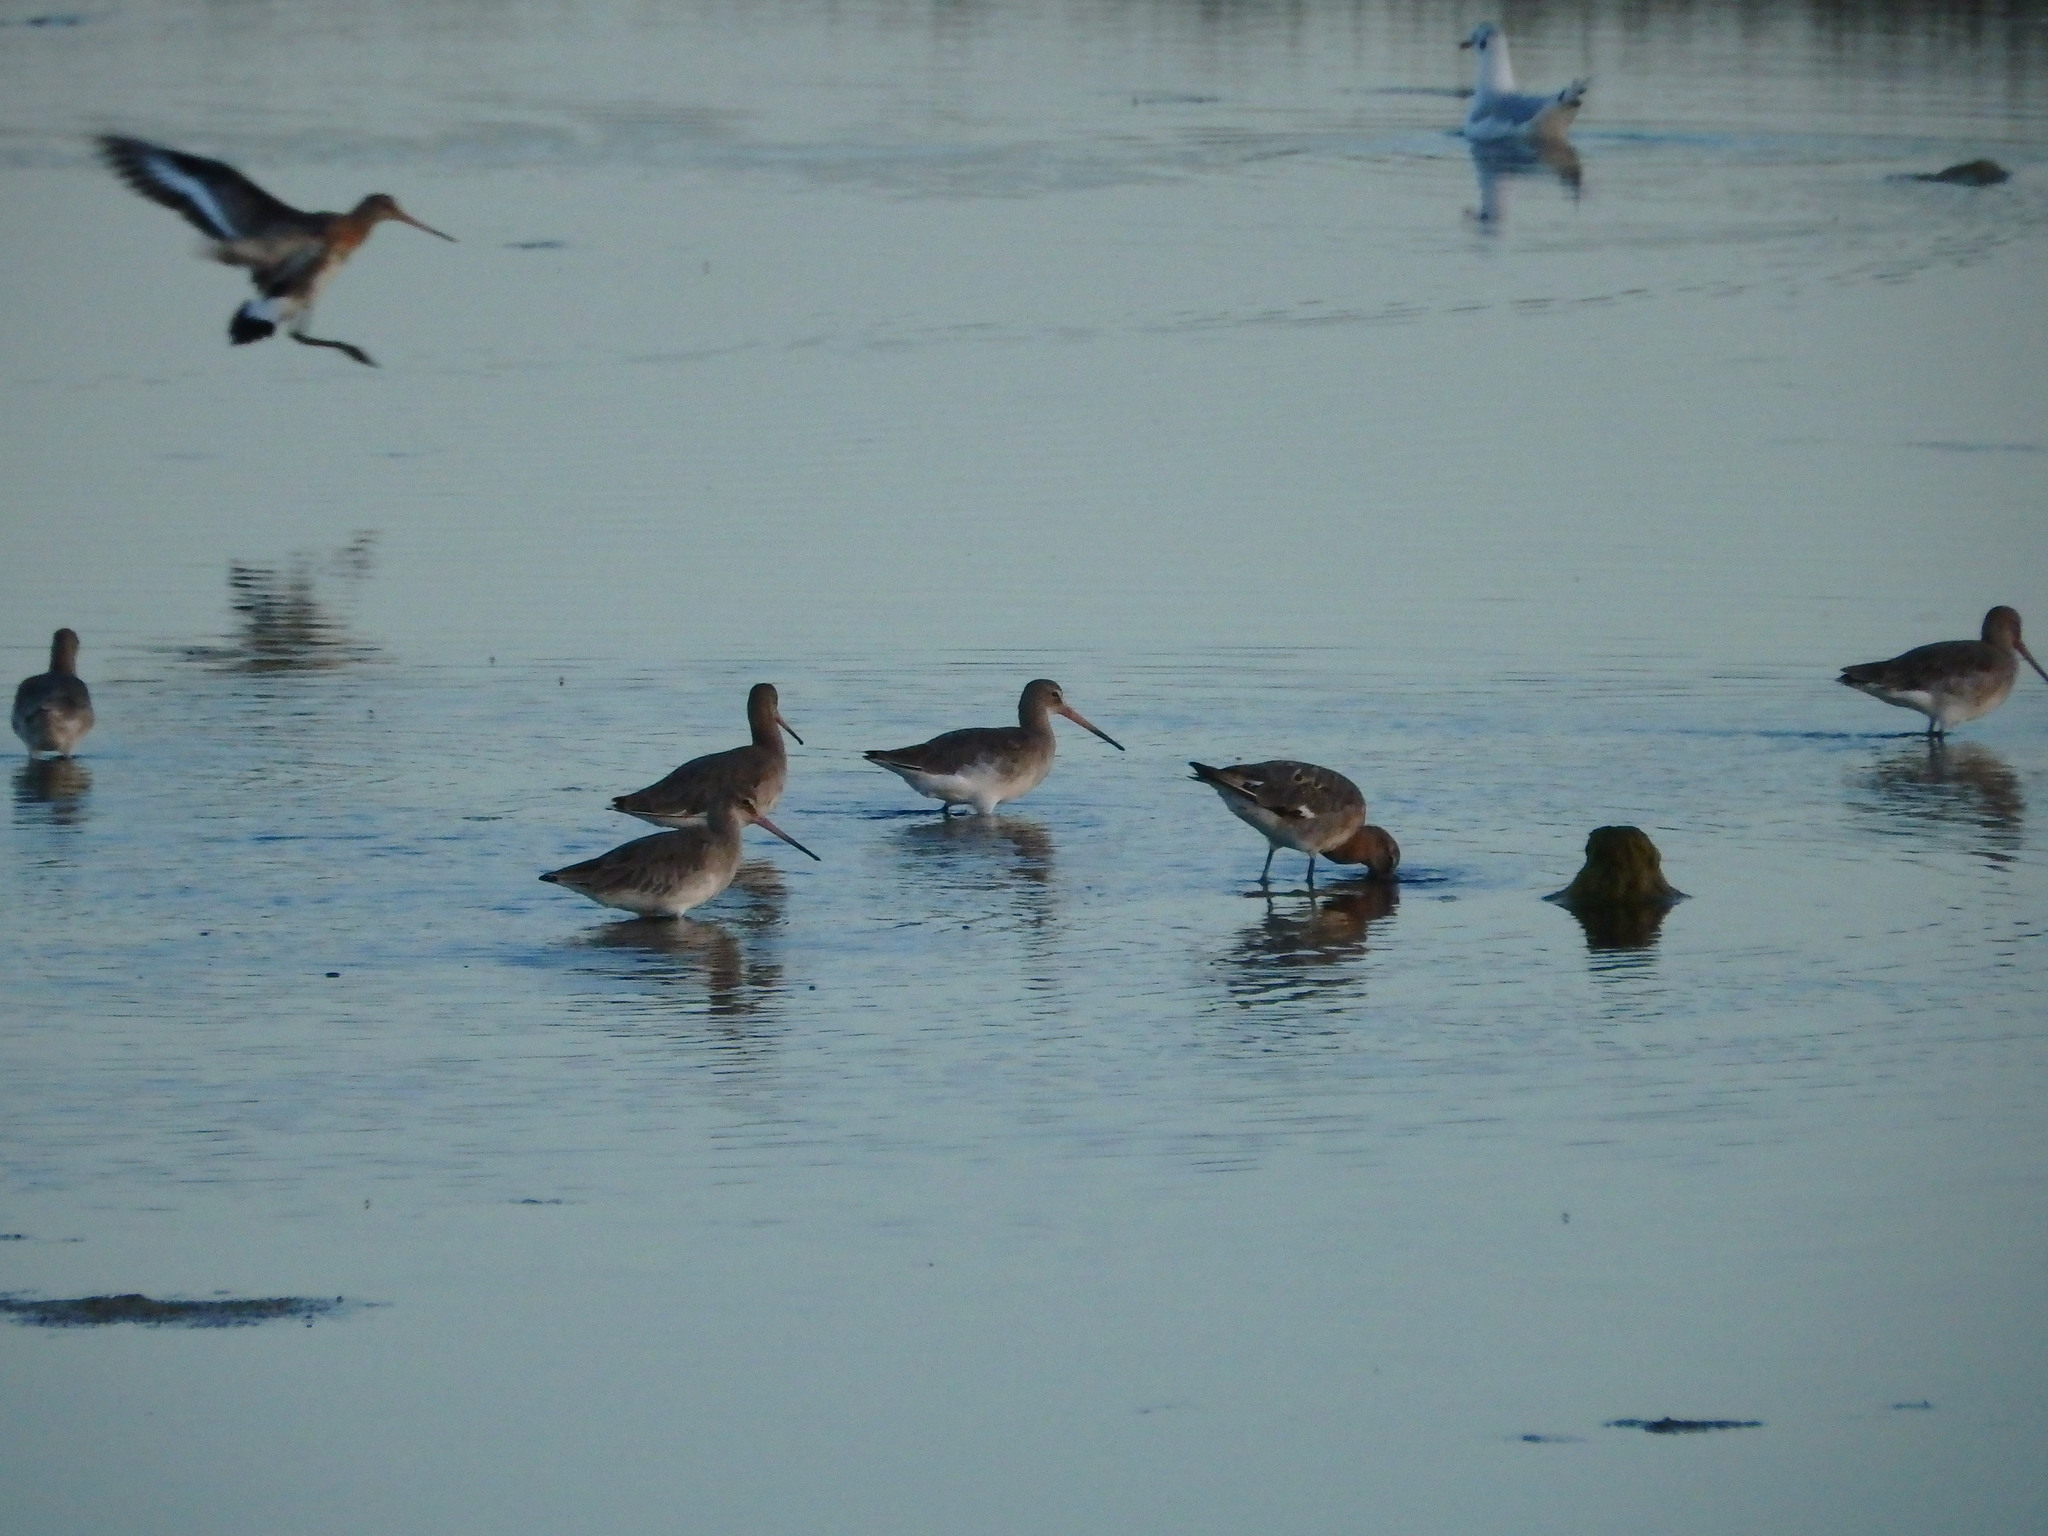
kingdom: Animalia
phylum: Chordata
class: Aves
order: Charadriiformes
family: Scolopacidae
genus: Limosa
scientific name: Limosa limosa
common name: Black-tailed godwit
